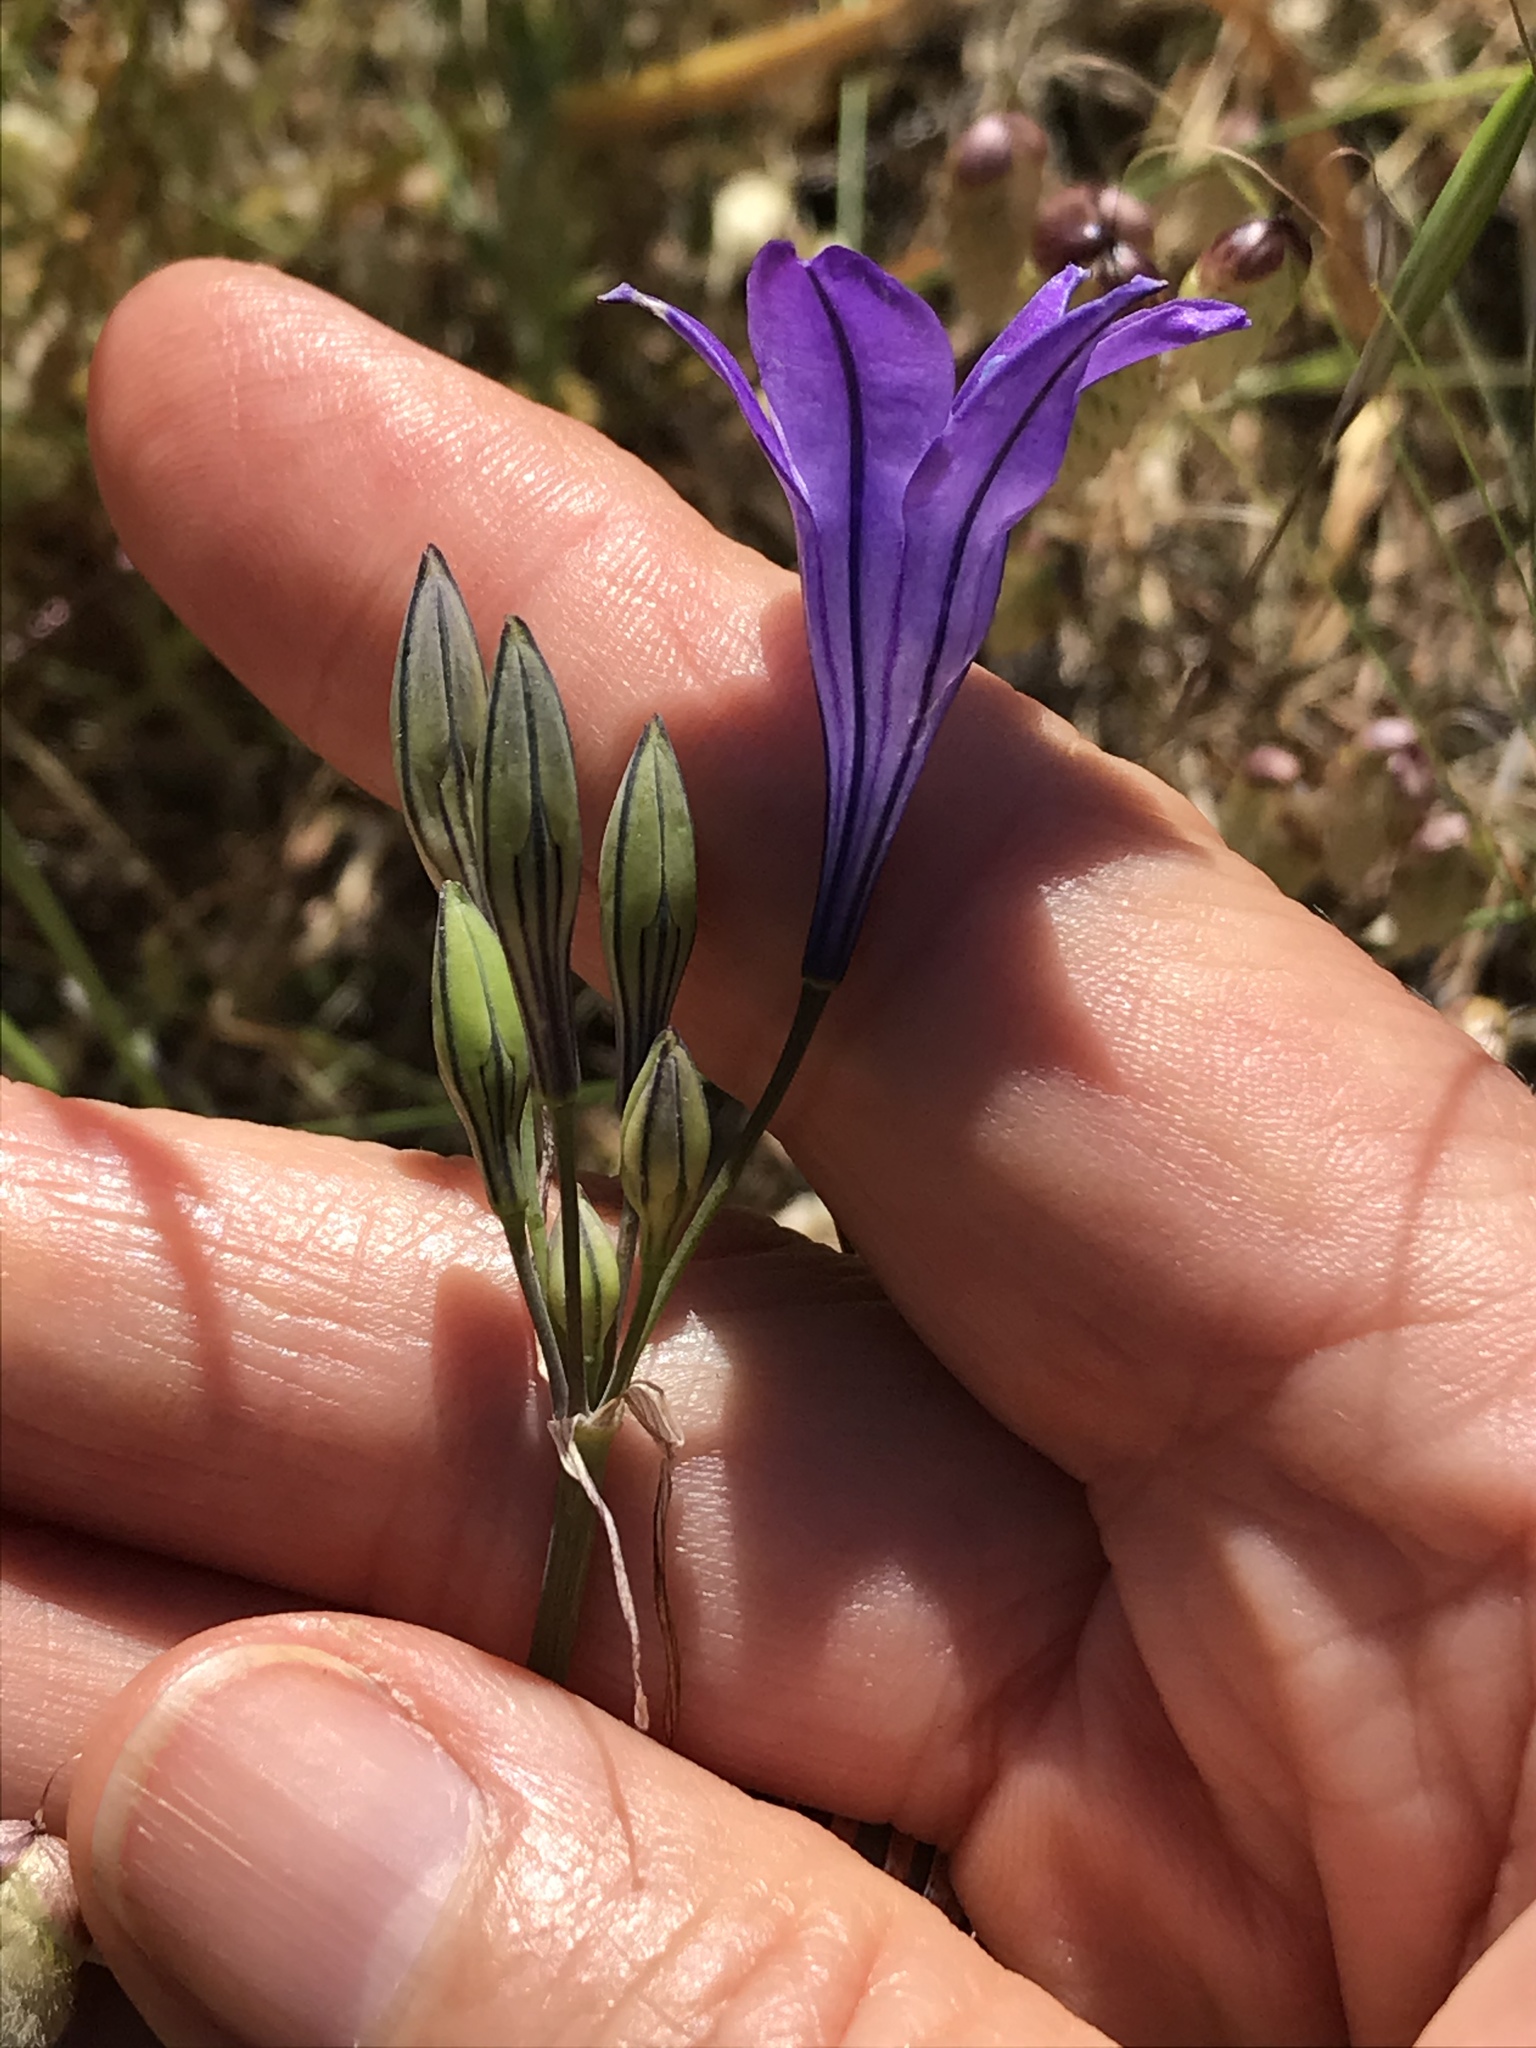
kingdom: Plantae
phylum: Tracheophyta
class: Liliopsida
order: Asparagales
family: Asparagaceae
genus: Triteleia
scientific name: Triteleia laxa
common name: Triplet-lily
